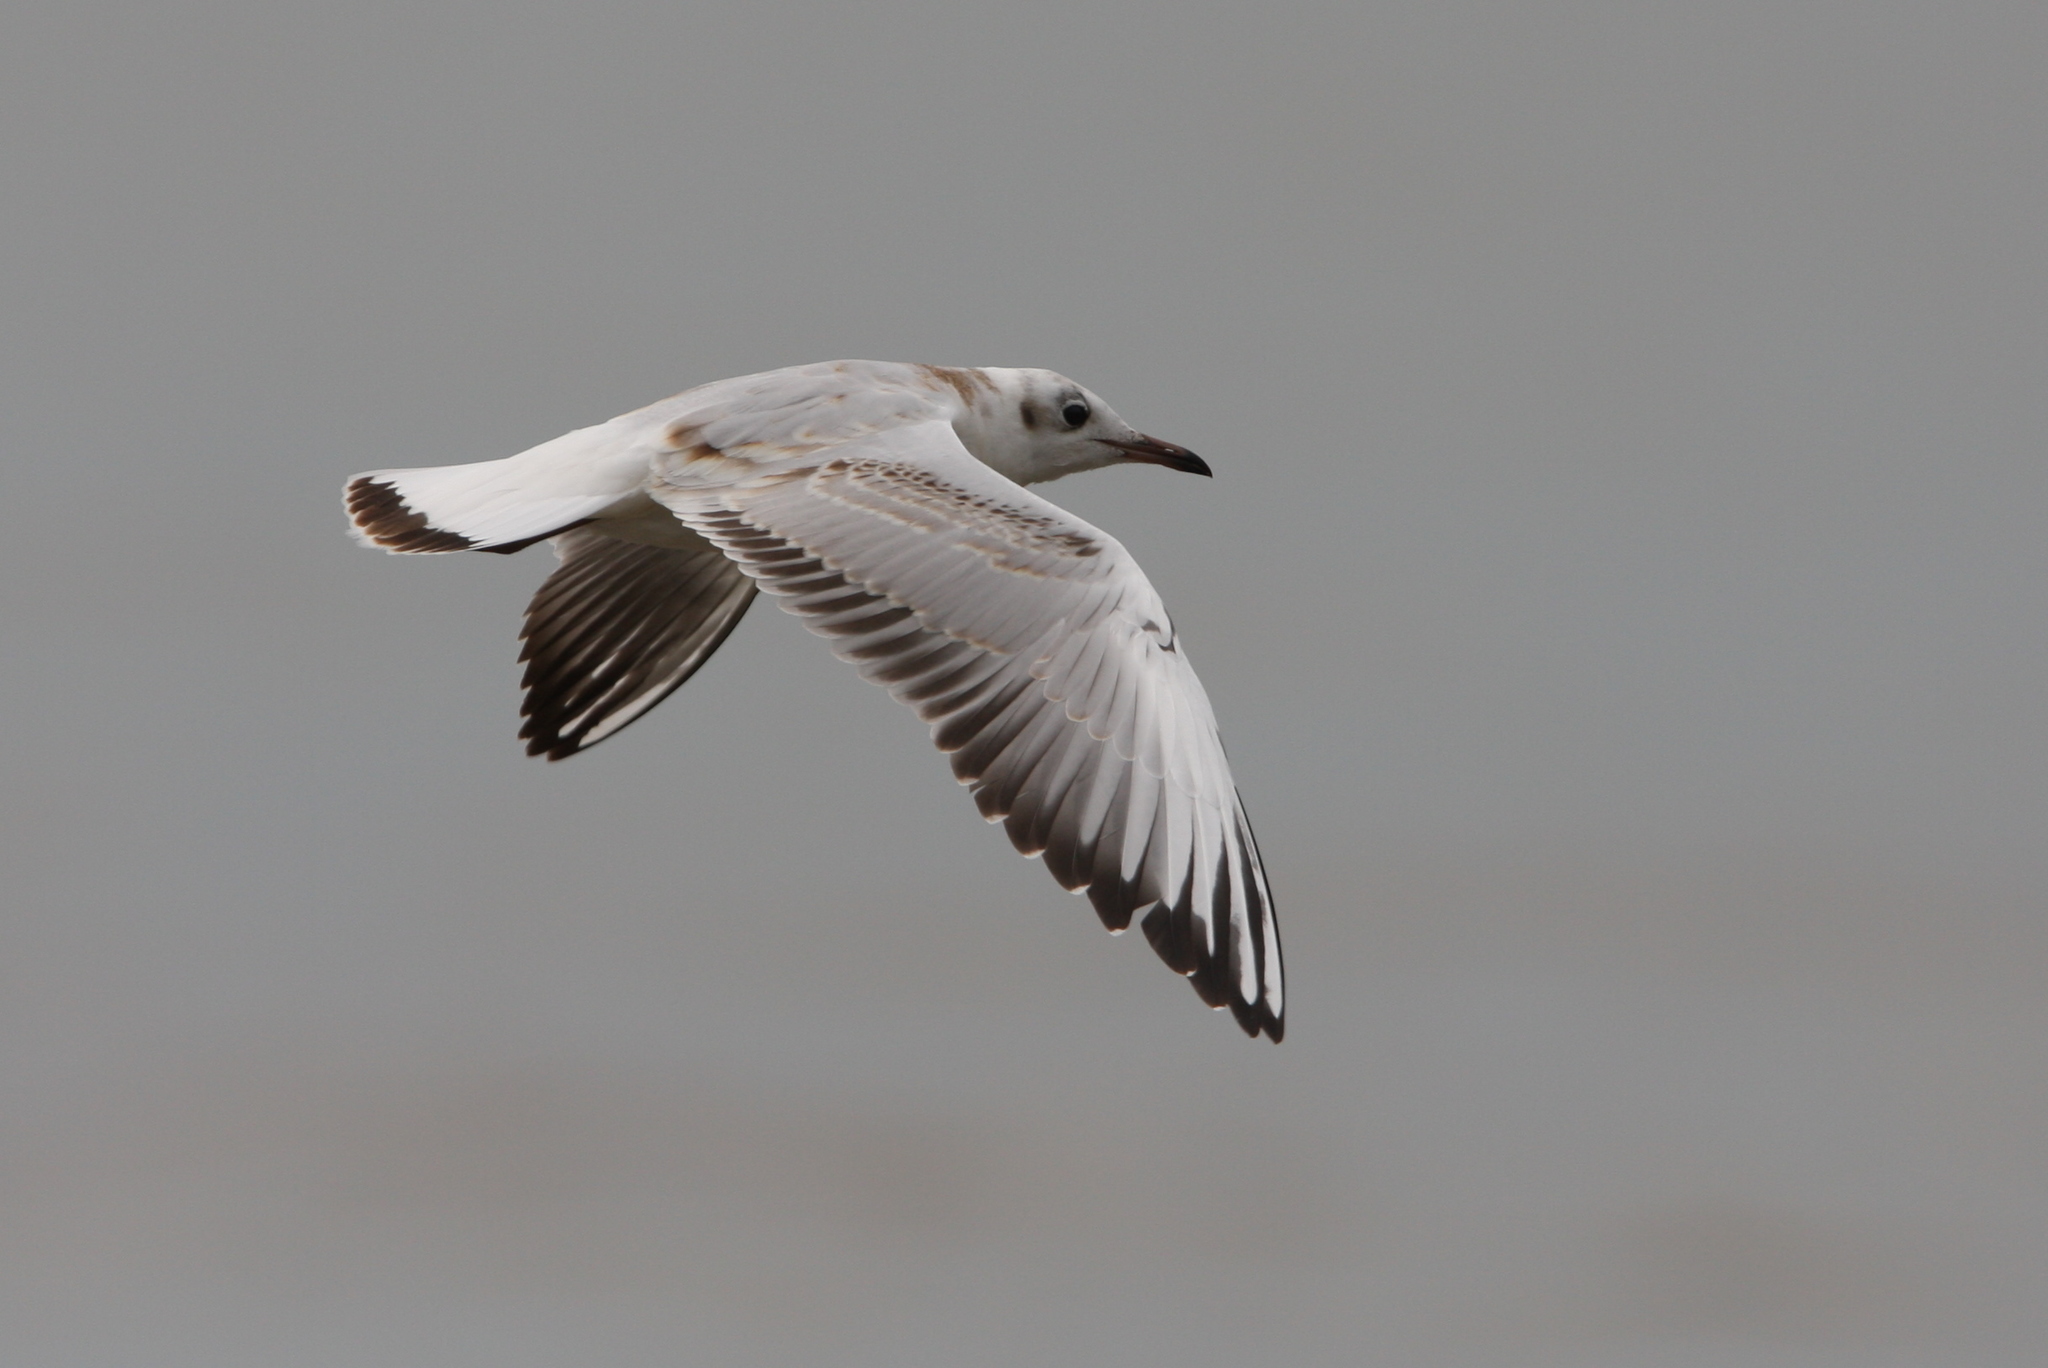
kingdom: Animalia
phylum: Chordata
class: Aves
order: Charadriiformes
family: Laridae
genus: Chroicocephalus
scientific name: Chroicocephalus ridibundus
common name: Black-headed gull
